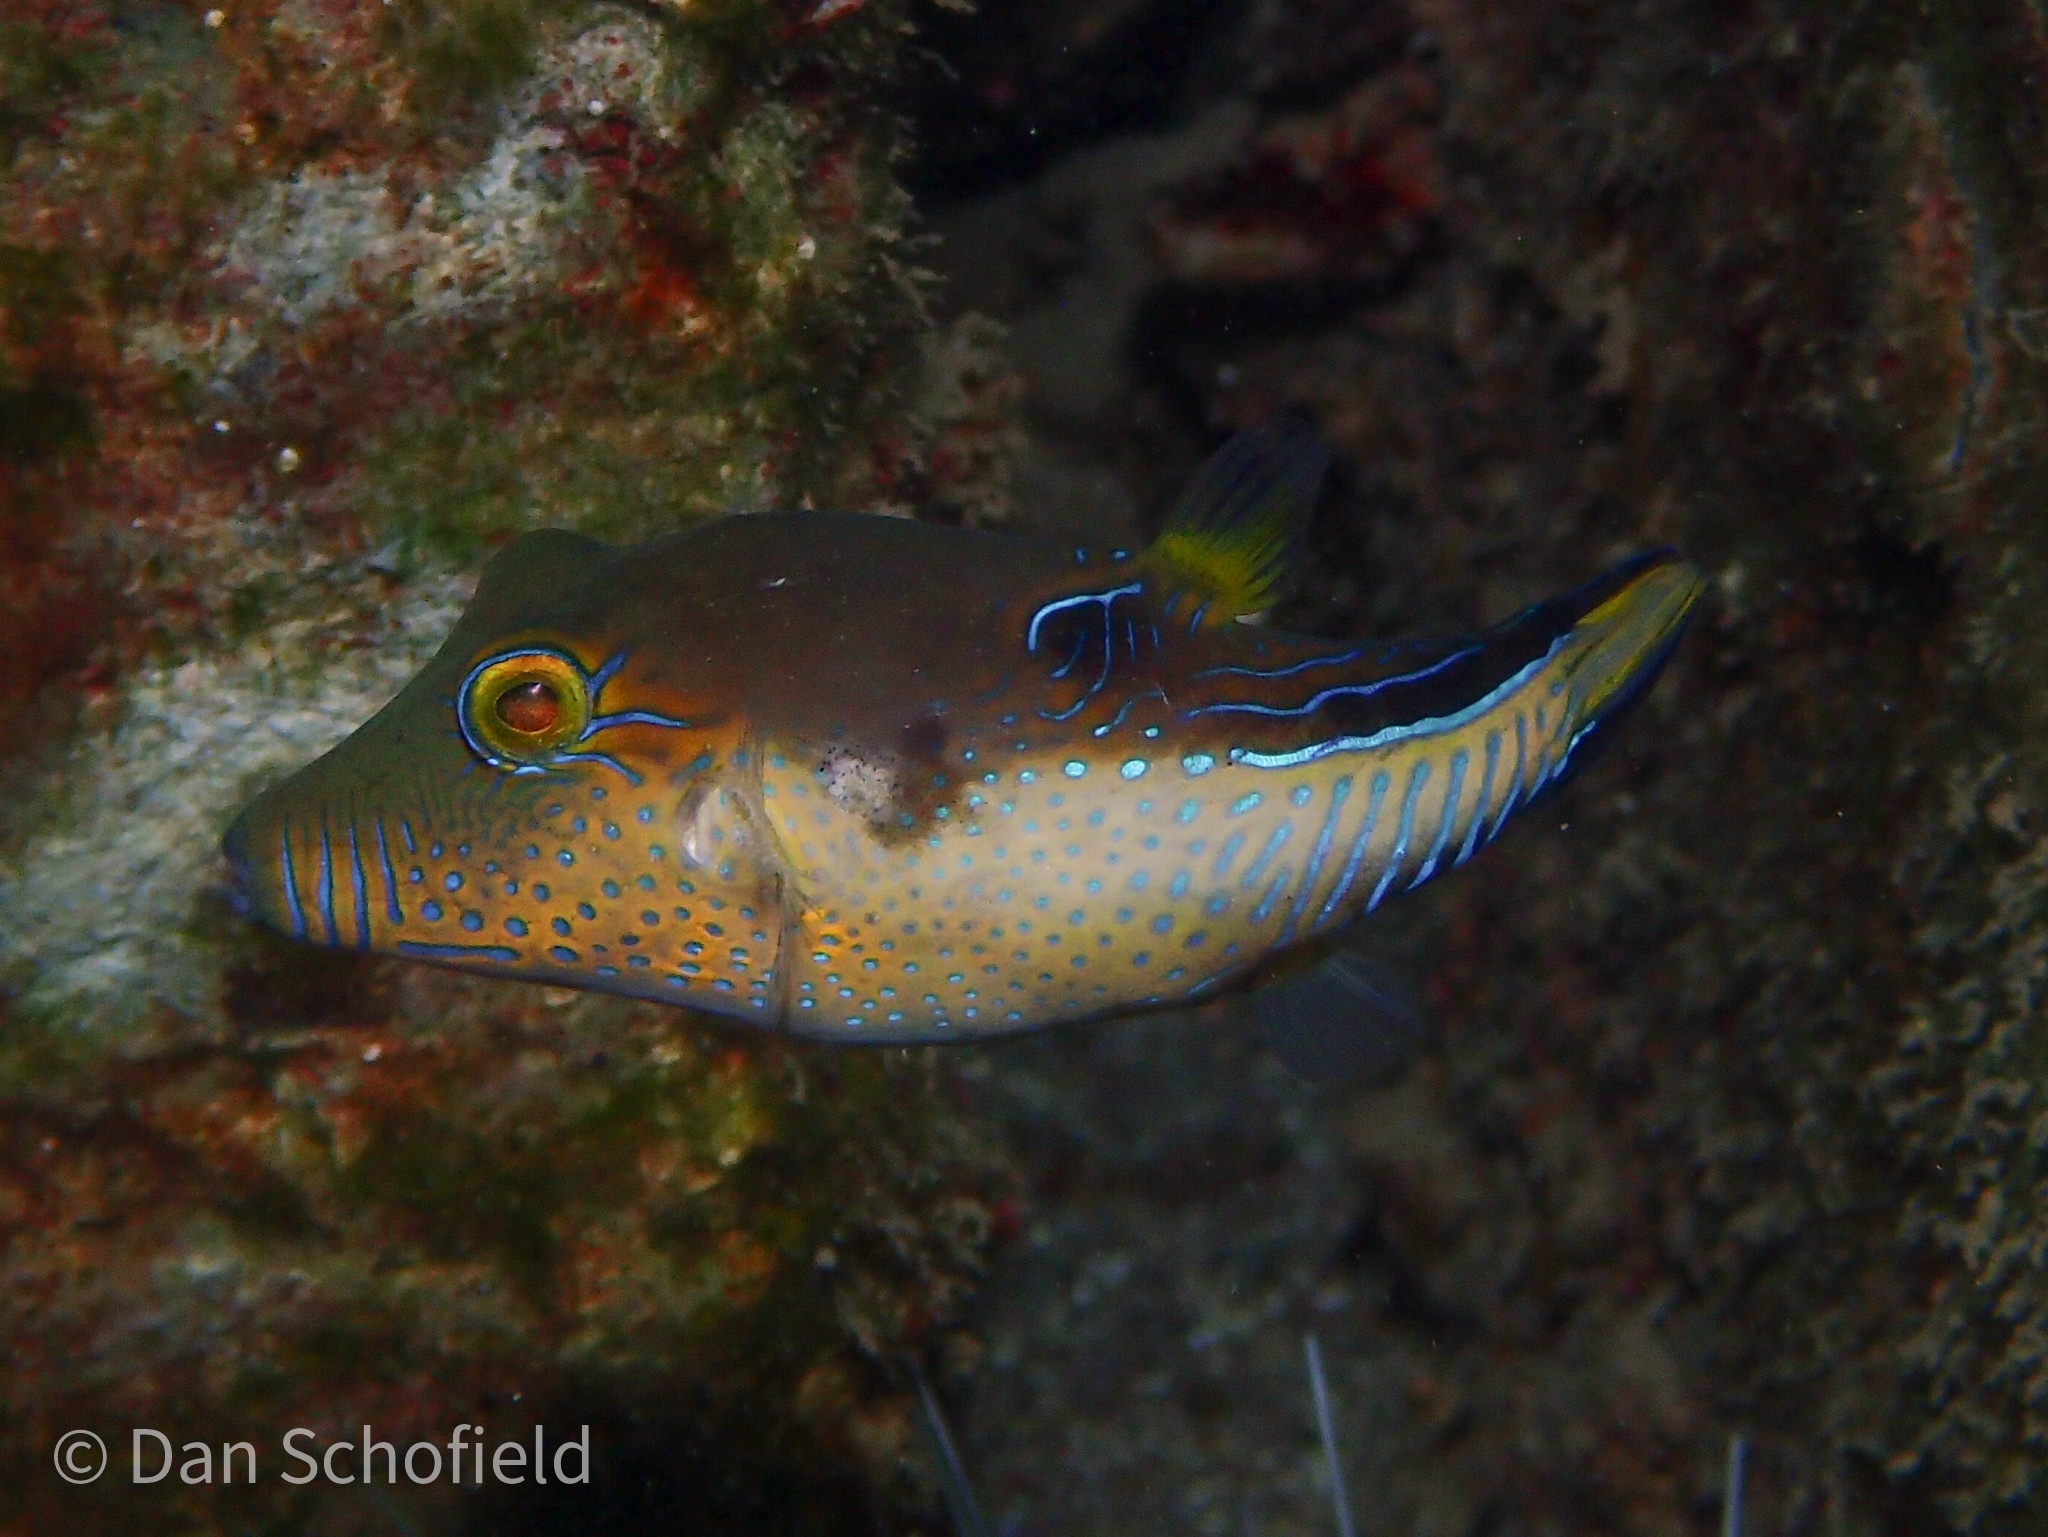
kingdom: Animalia
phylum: Chordata
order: Tetraodontiformes
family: Tetraodontidae
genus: Canthigaster
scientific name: Canthigaster rostrata
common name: Caribbean sharpnose-puffer
